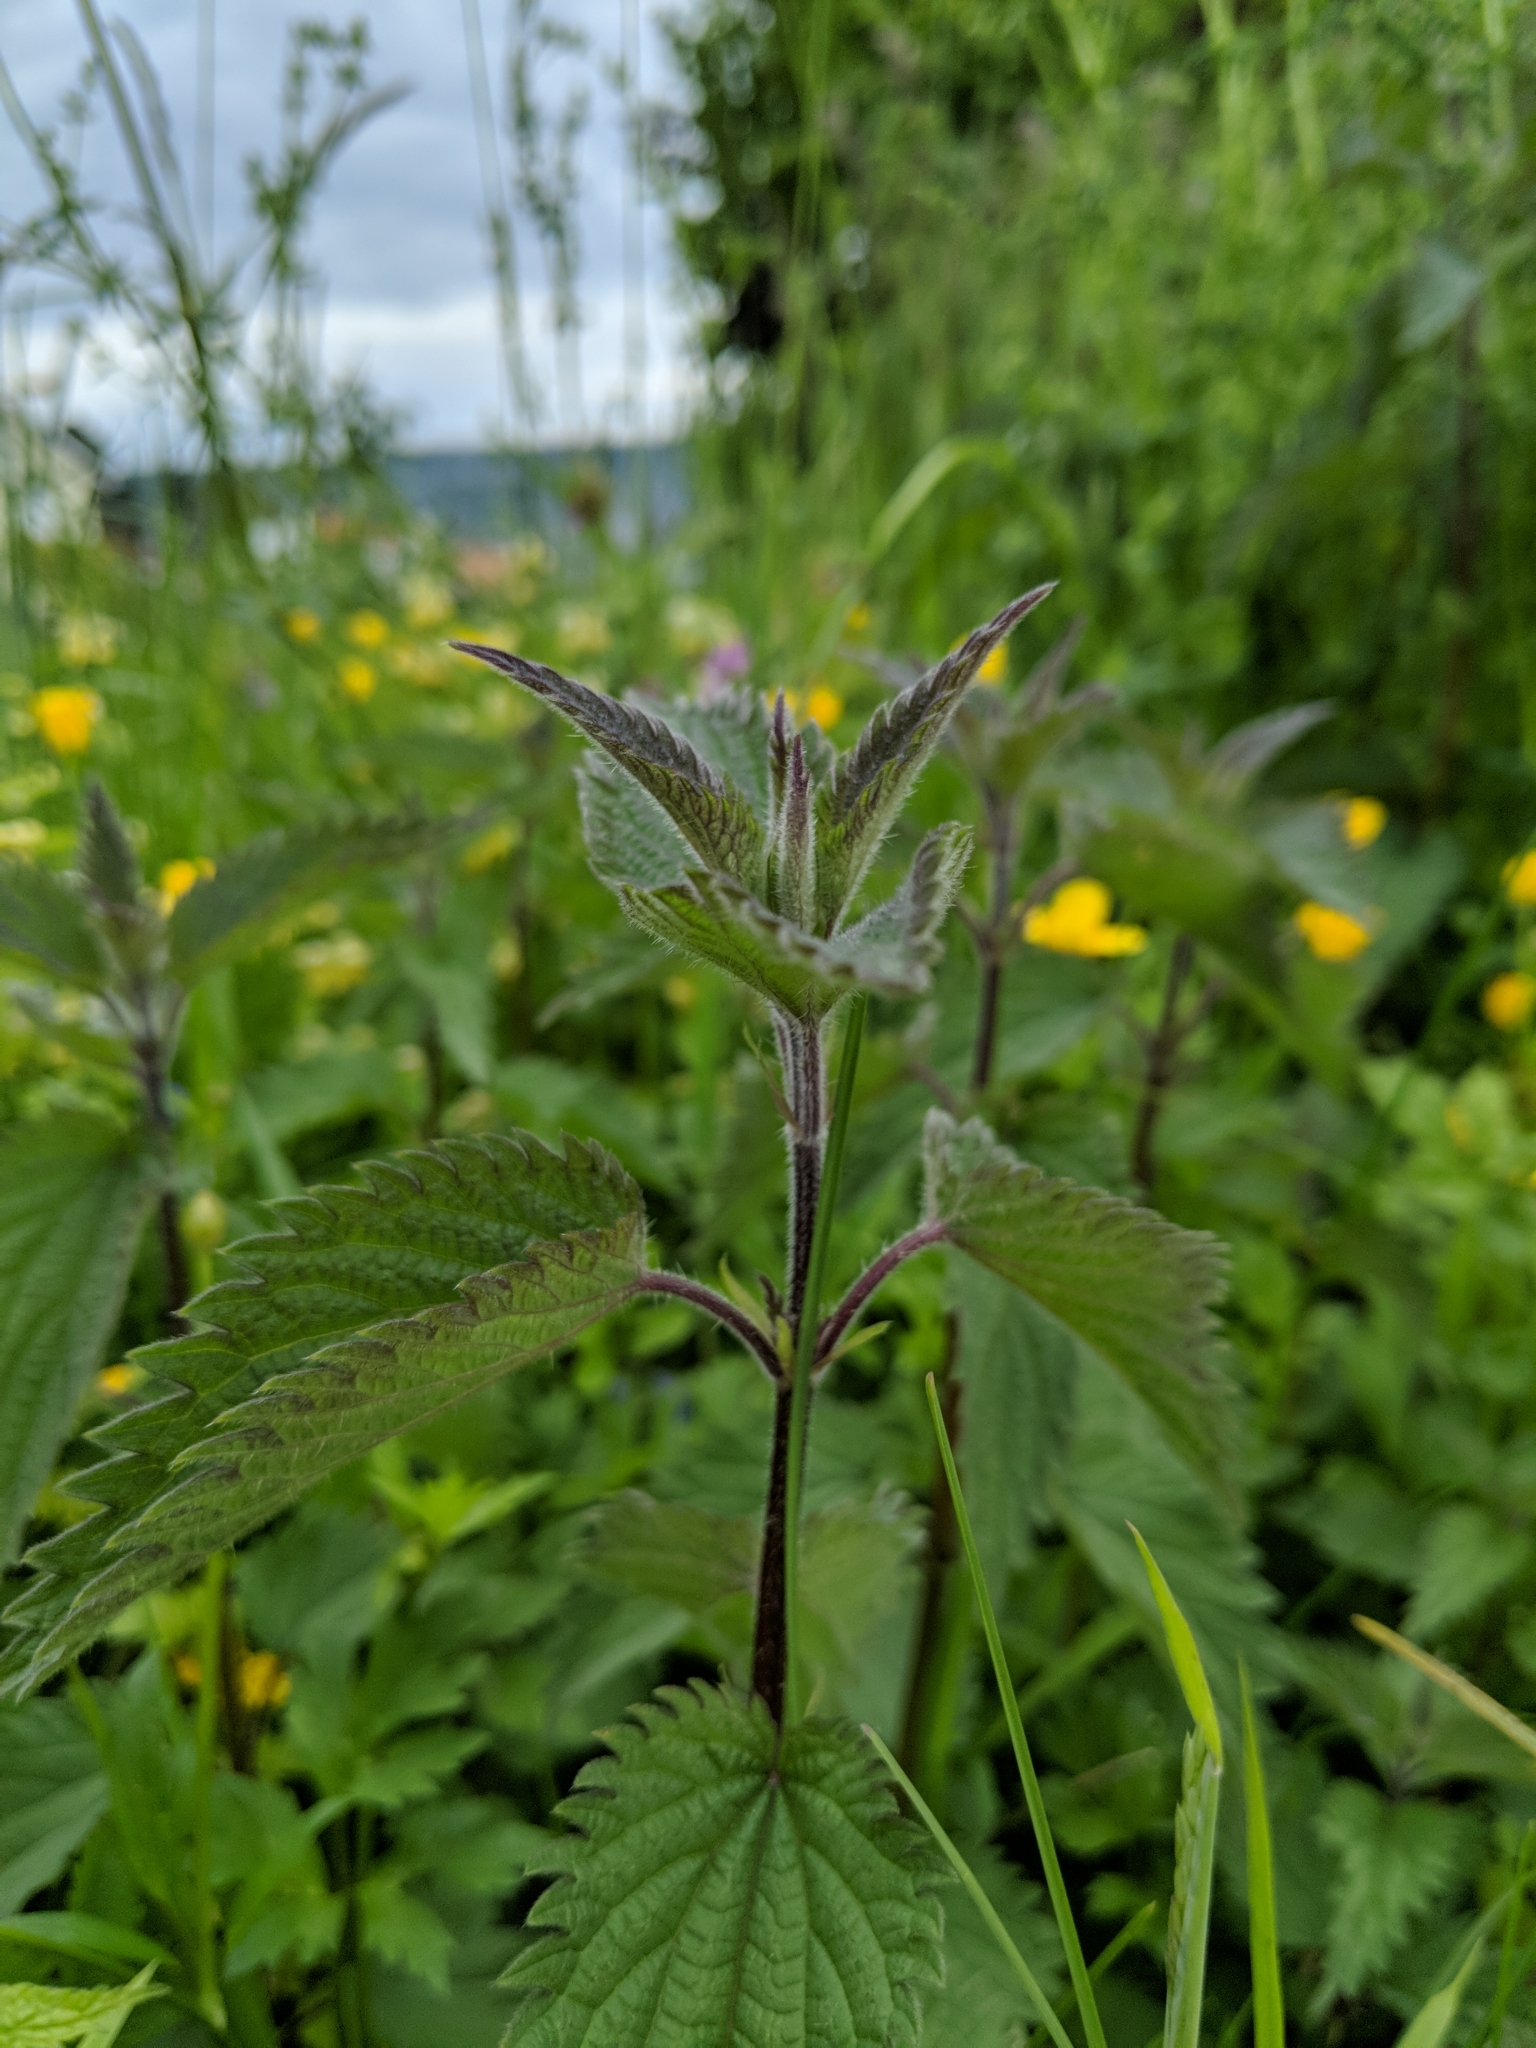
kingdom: Plantae
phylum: Tracheophyta
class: Magnoliopsida
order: Rosales
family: Urticaceae
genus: Urtica
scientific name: Urtica dioica
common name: Common nettle
